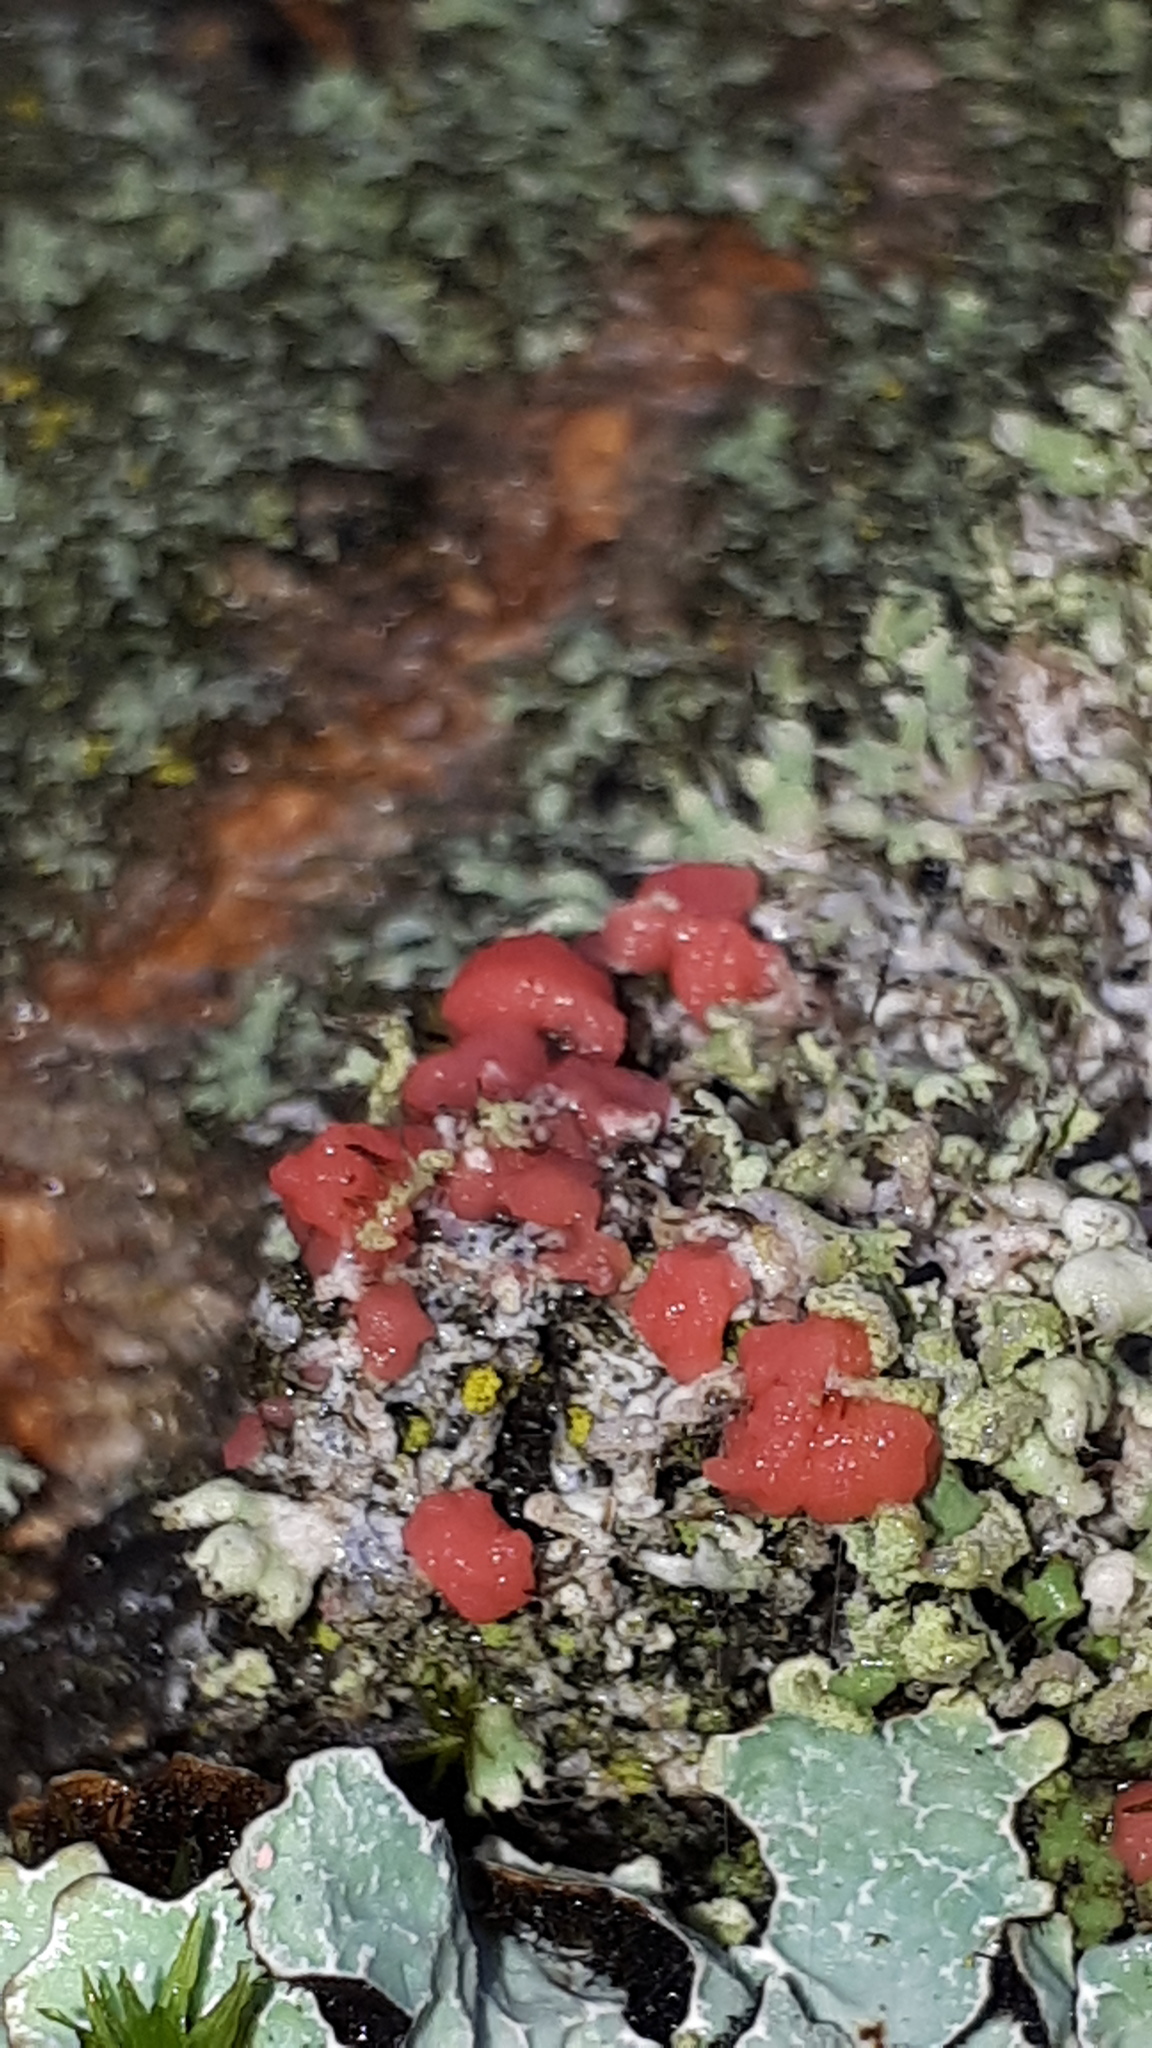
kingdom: Fungi
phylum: Ascomycota
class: Sordariomycetes
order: Hypocreales
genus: Illosporiopsis
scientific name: Illosporiopsis christiansenii
